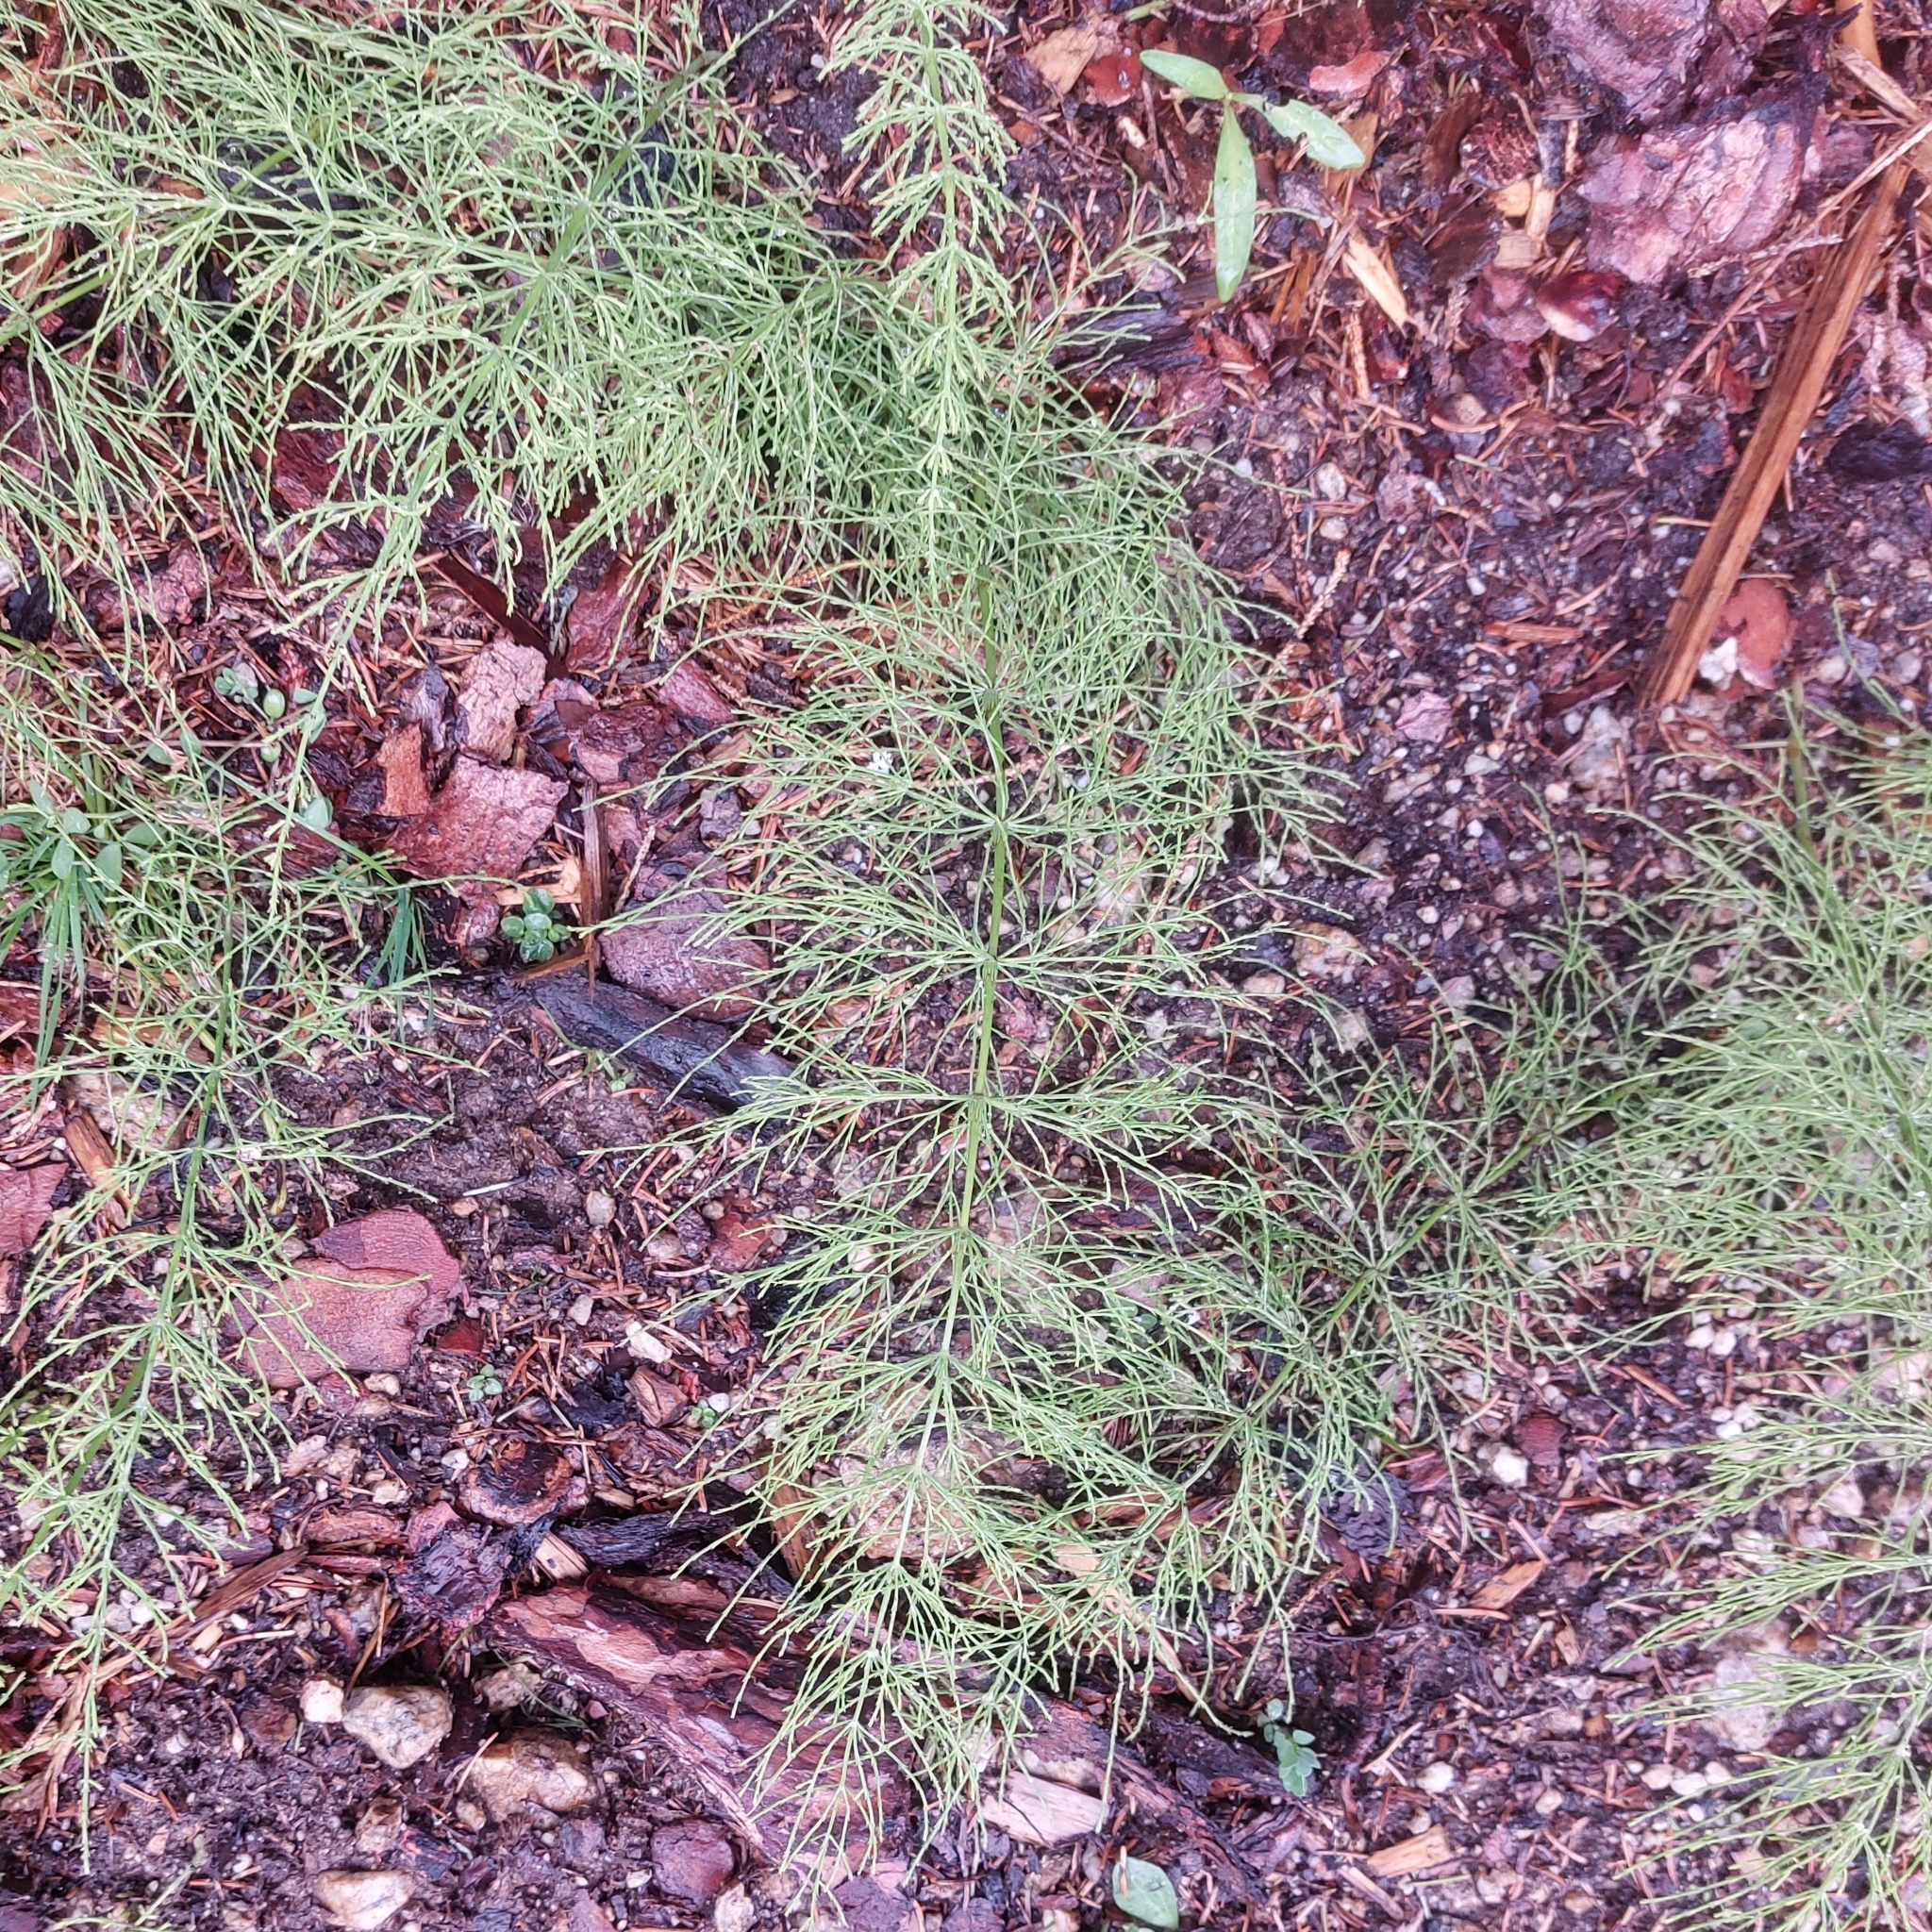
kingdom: Plantae
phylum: Tracheophyta
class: Polypodiopsida
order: Equisetales
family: Equisetaceae
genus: Equisetum
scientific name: Equisetum sylvaticum
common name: Wood horsetail
